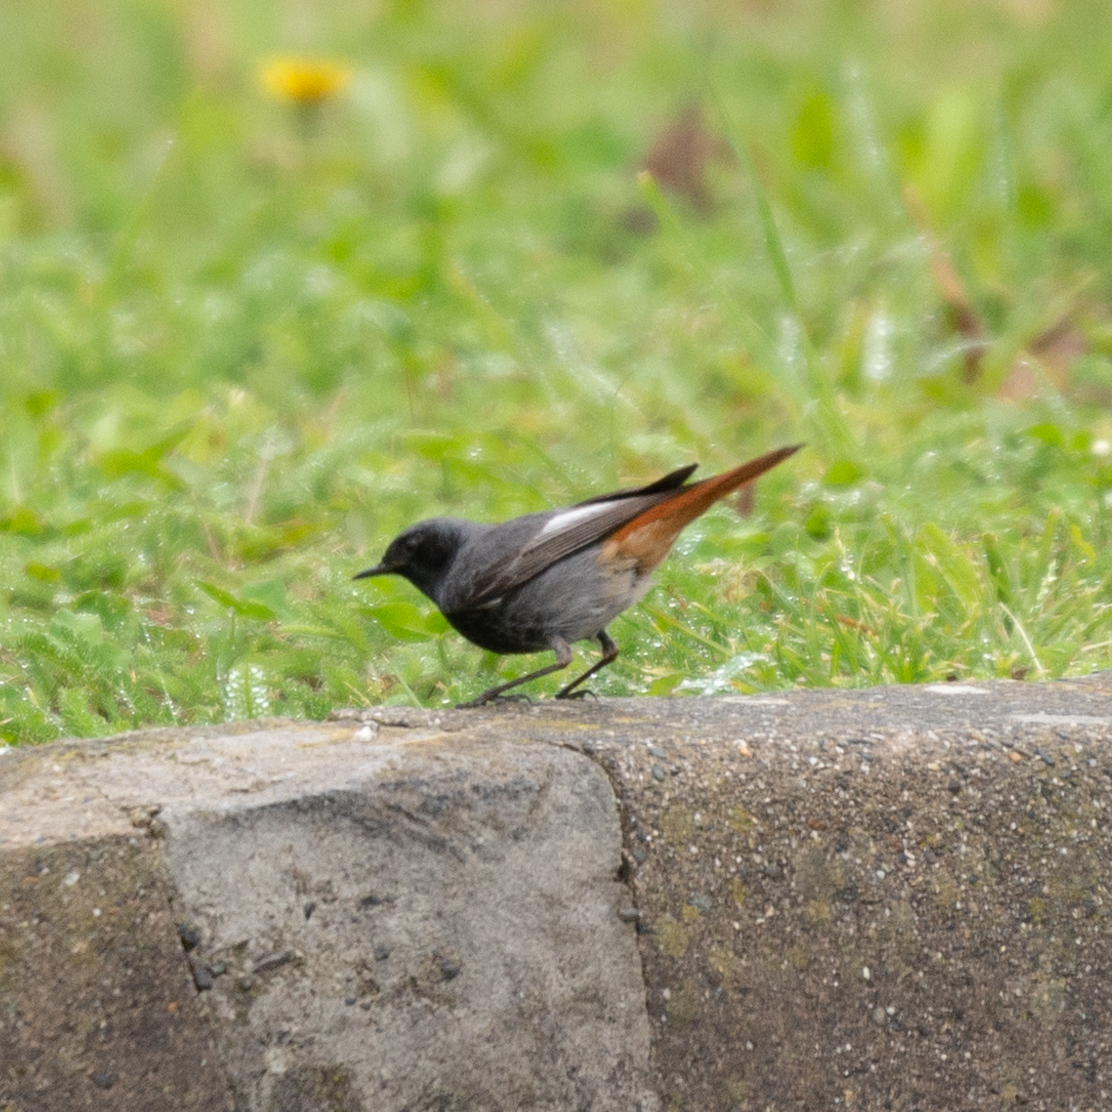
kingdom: Animalia
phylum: Chordata
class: Aves
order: Passeriformes
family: Muscicapidae
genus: Phoenicurus
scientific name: Phoenicurus ochruros
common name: Black redstart
